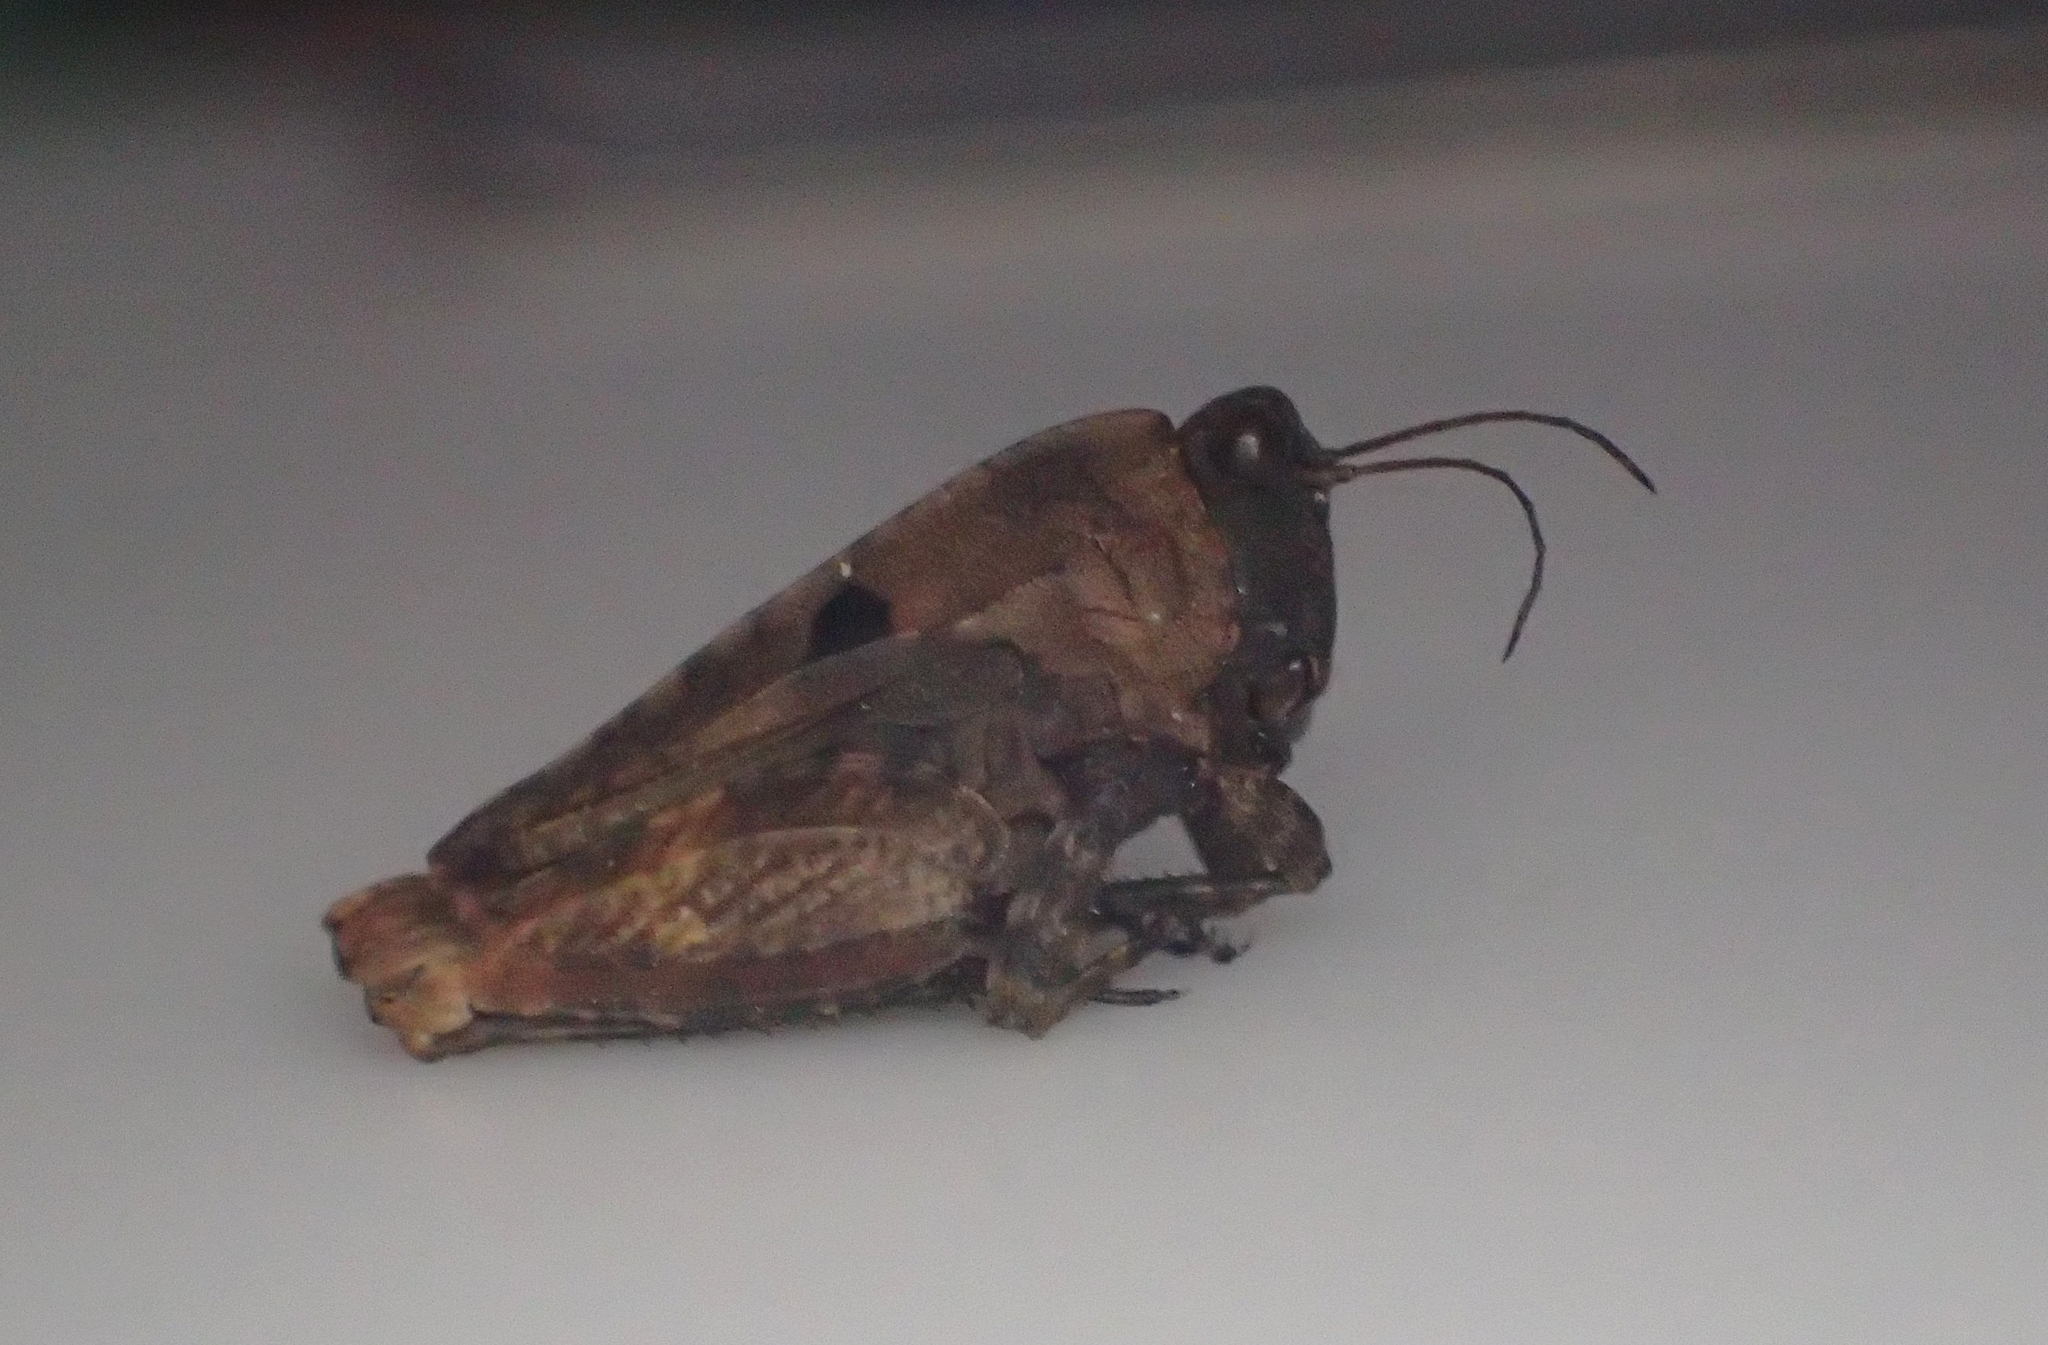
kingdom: Animalia
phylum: Arthropoda
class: Insecta
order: Orthoptera
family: Tetrigidae
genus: Tetrix
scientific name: Tetrix tenuicornis
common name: Long-horned groundhopper
